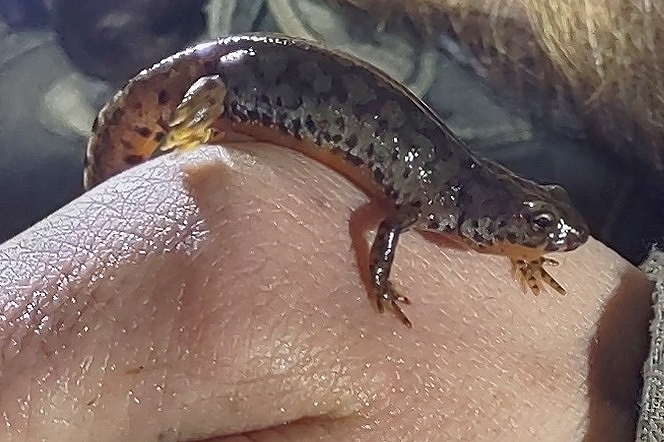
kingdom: Animalia
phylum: Chordata
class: Amphibia
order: Caudata
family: Salamandridae
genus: Ichthyosaura
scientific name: Ichthyosaura alpestris
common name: Alpine newt
